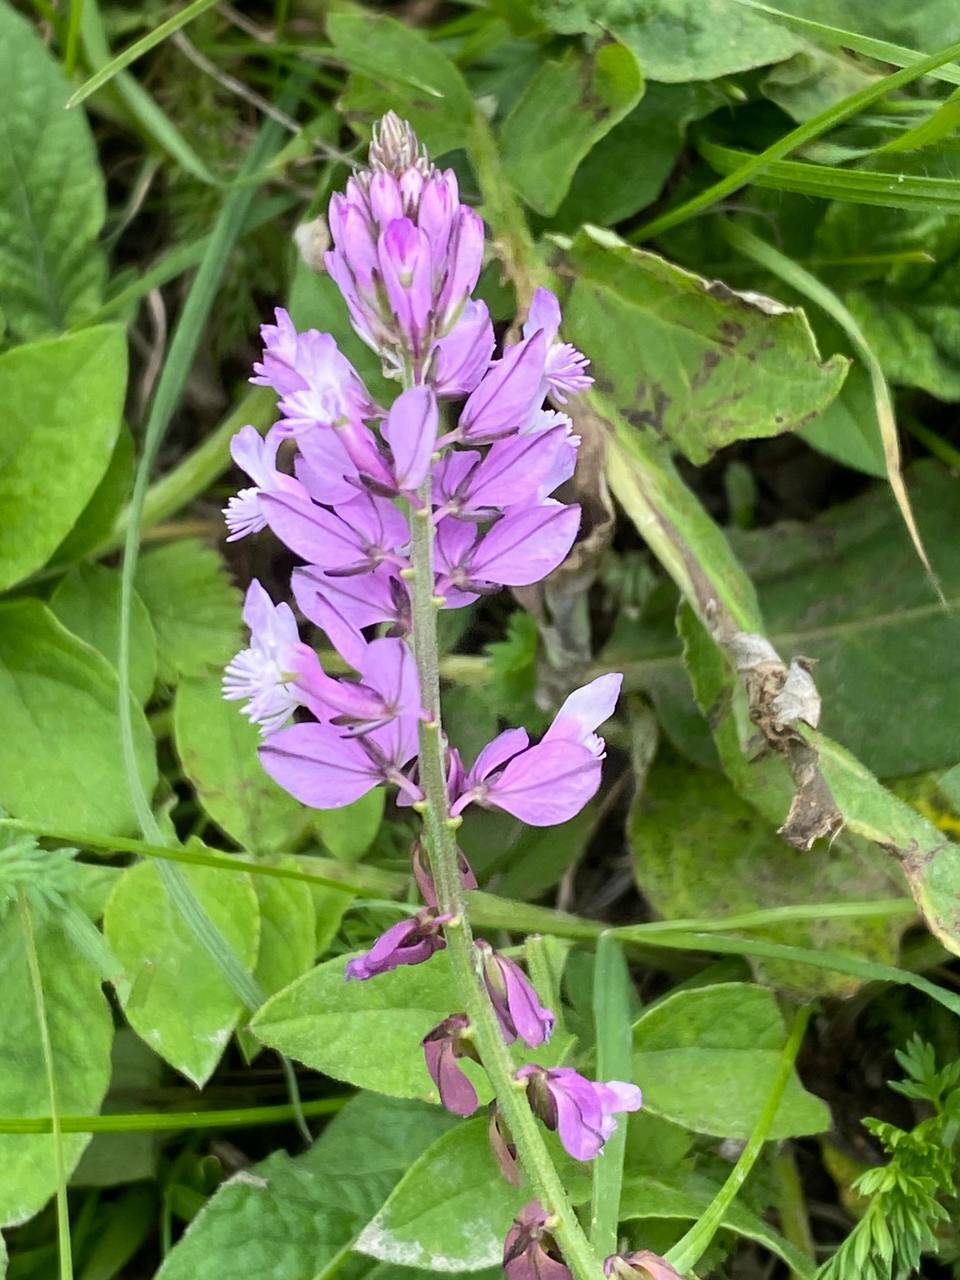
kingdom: Plantae
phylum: Tracheophyta
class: Magnoliopsida
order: Fabales
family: Polygalaceae
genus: Polygala
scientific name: Polygala major
